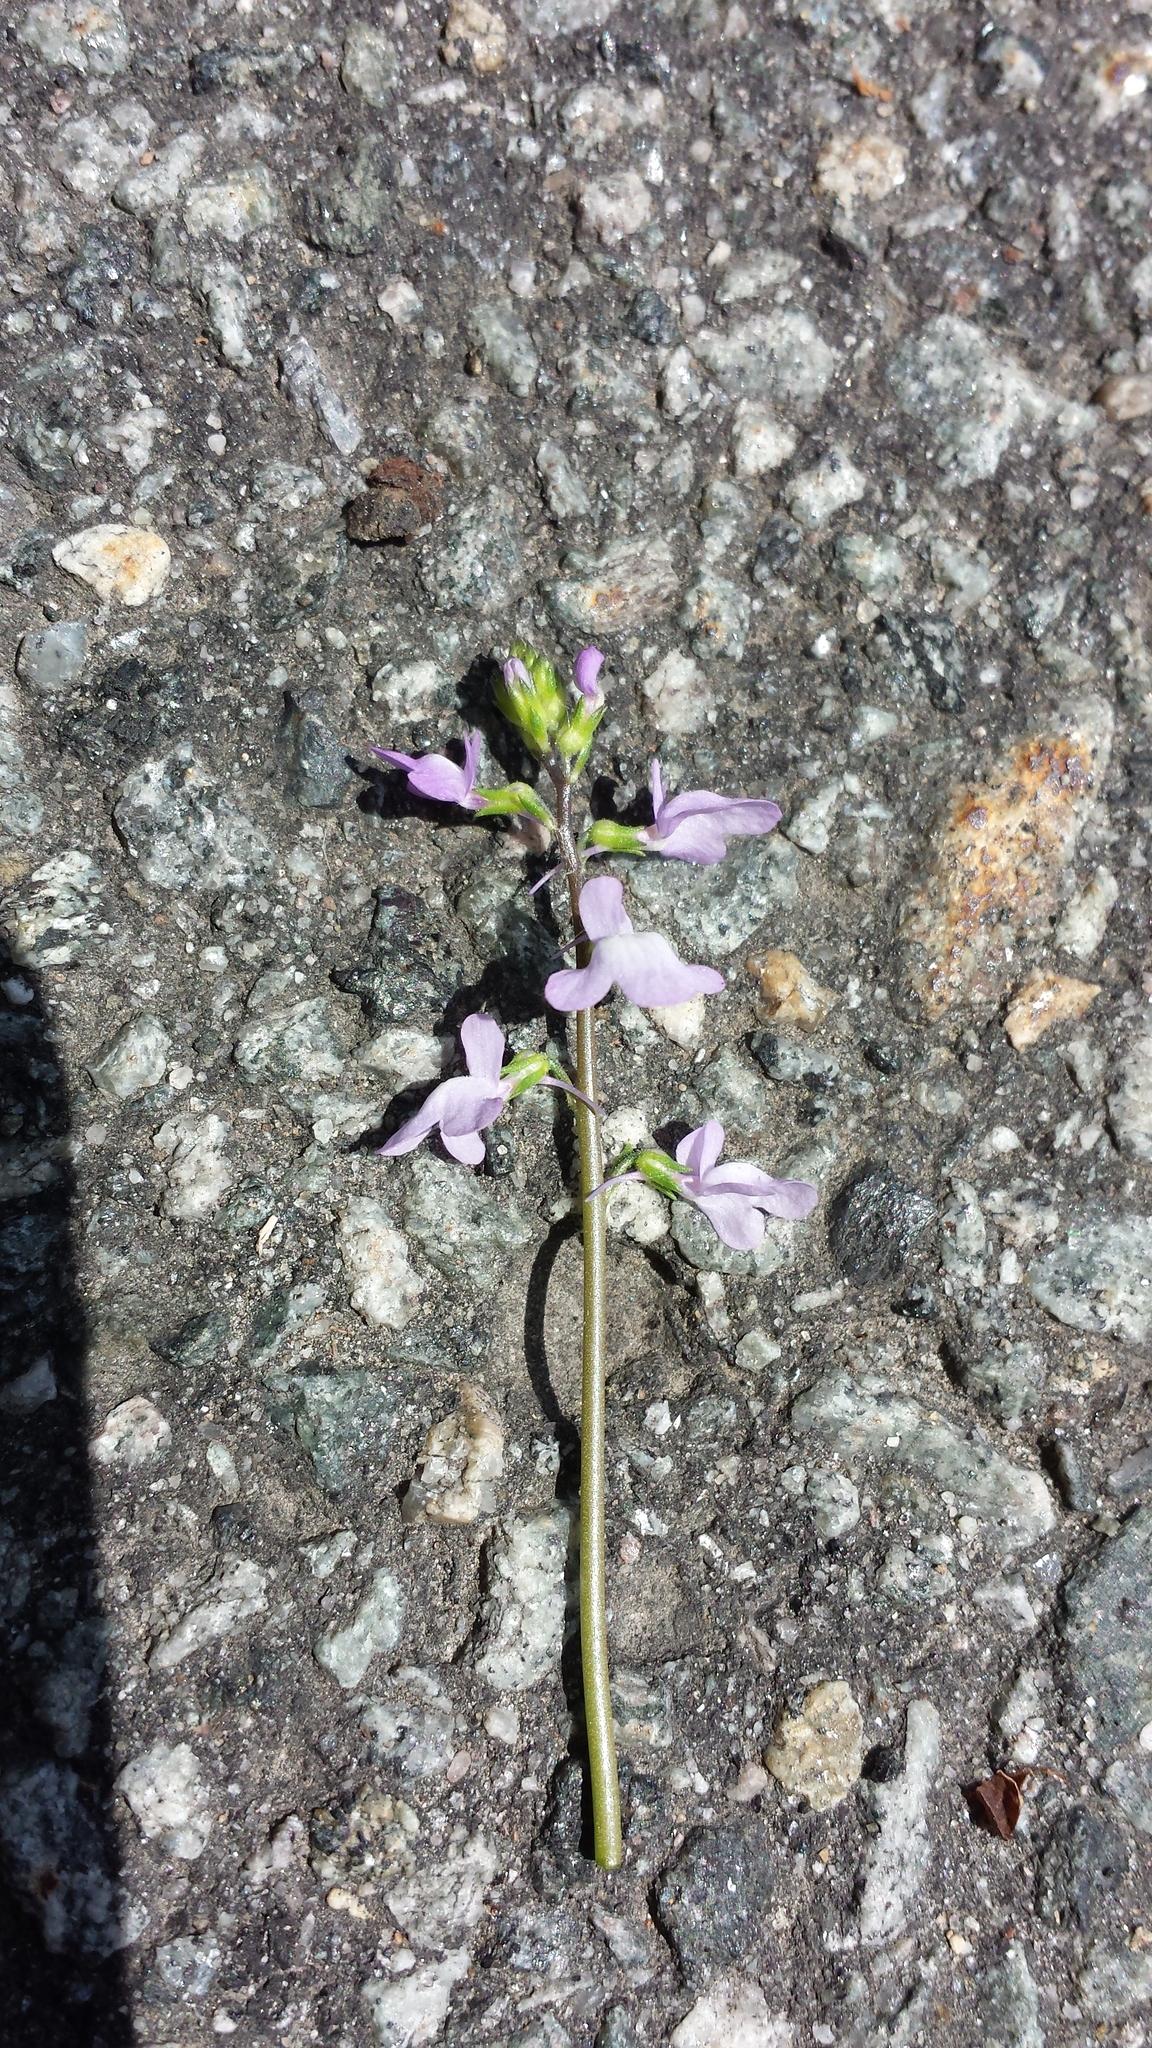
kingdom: Plantae
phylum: Tracheophyta
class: Magnoliopsida
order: Lamiales
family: Plantaginaceae
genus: Nuttallanthus
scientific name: Nuttallanthus canadensis
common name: Blue toadflax
